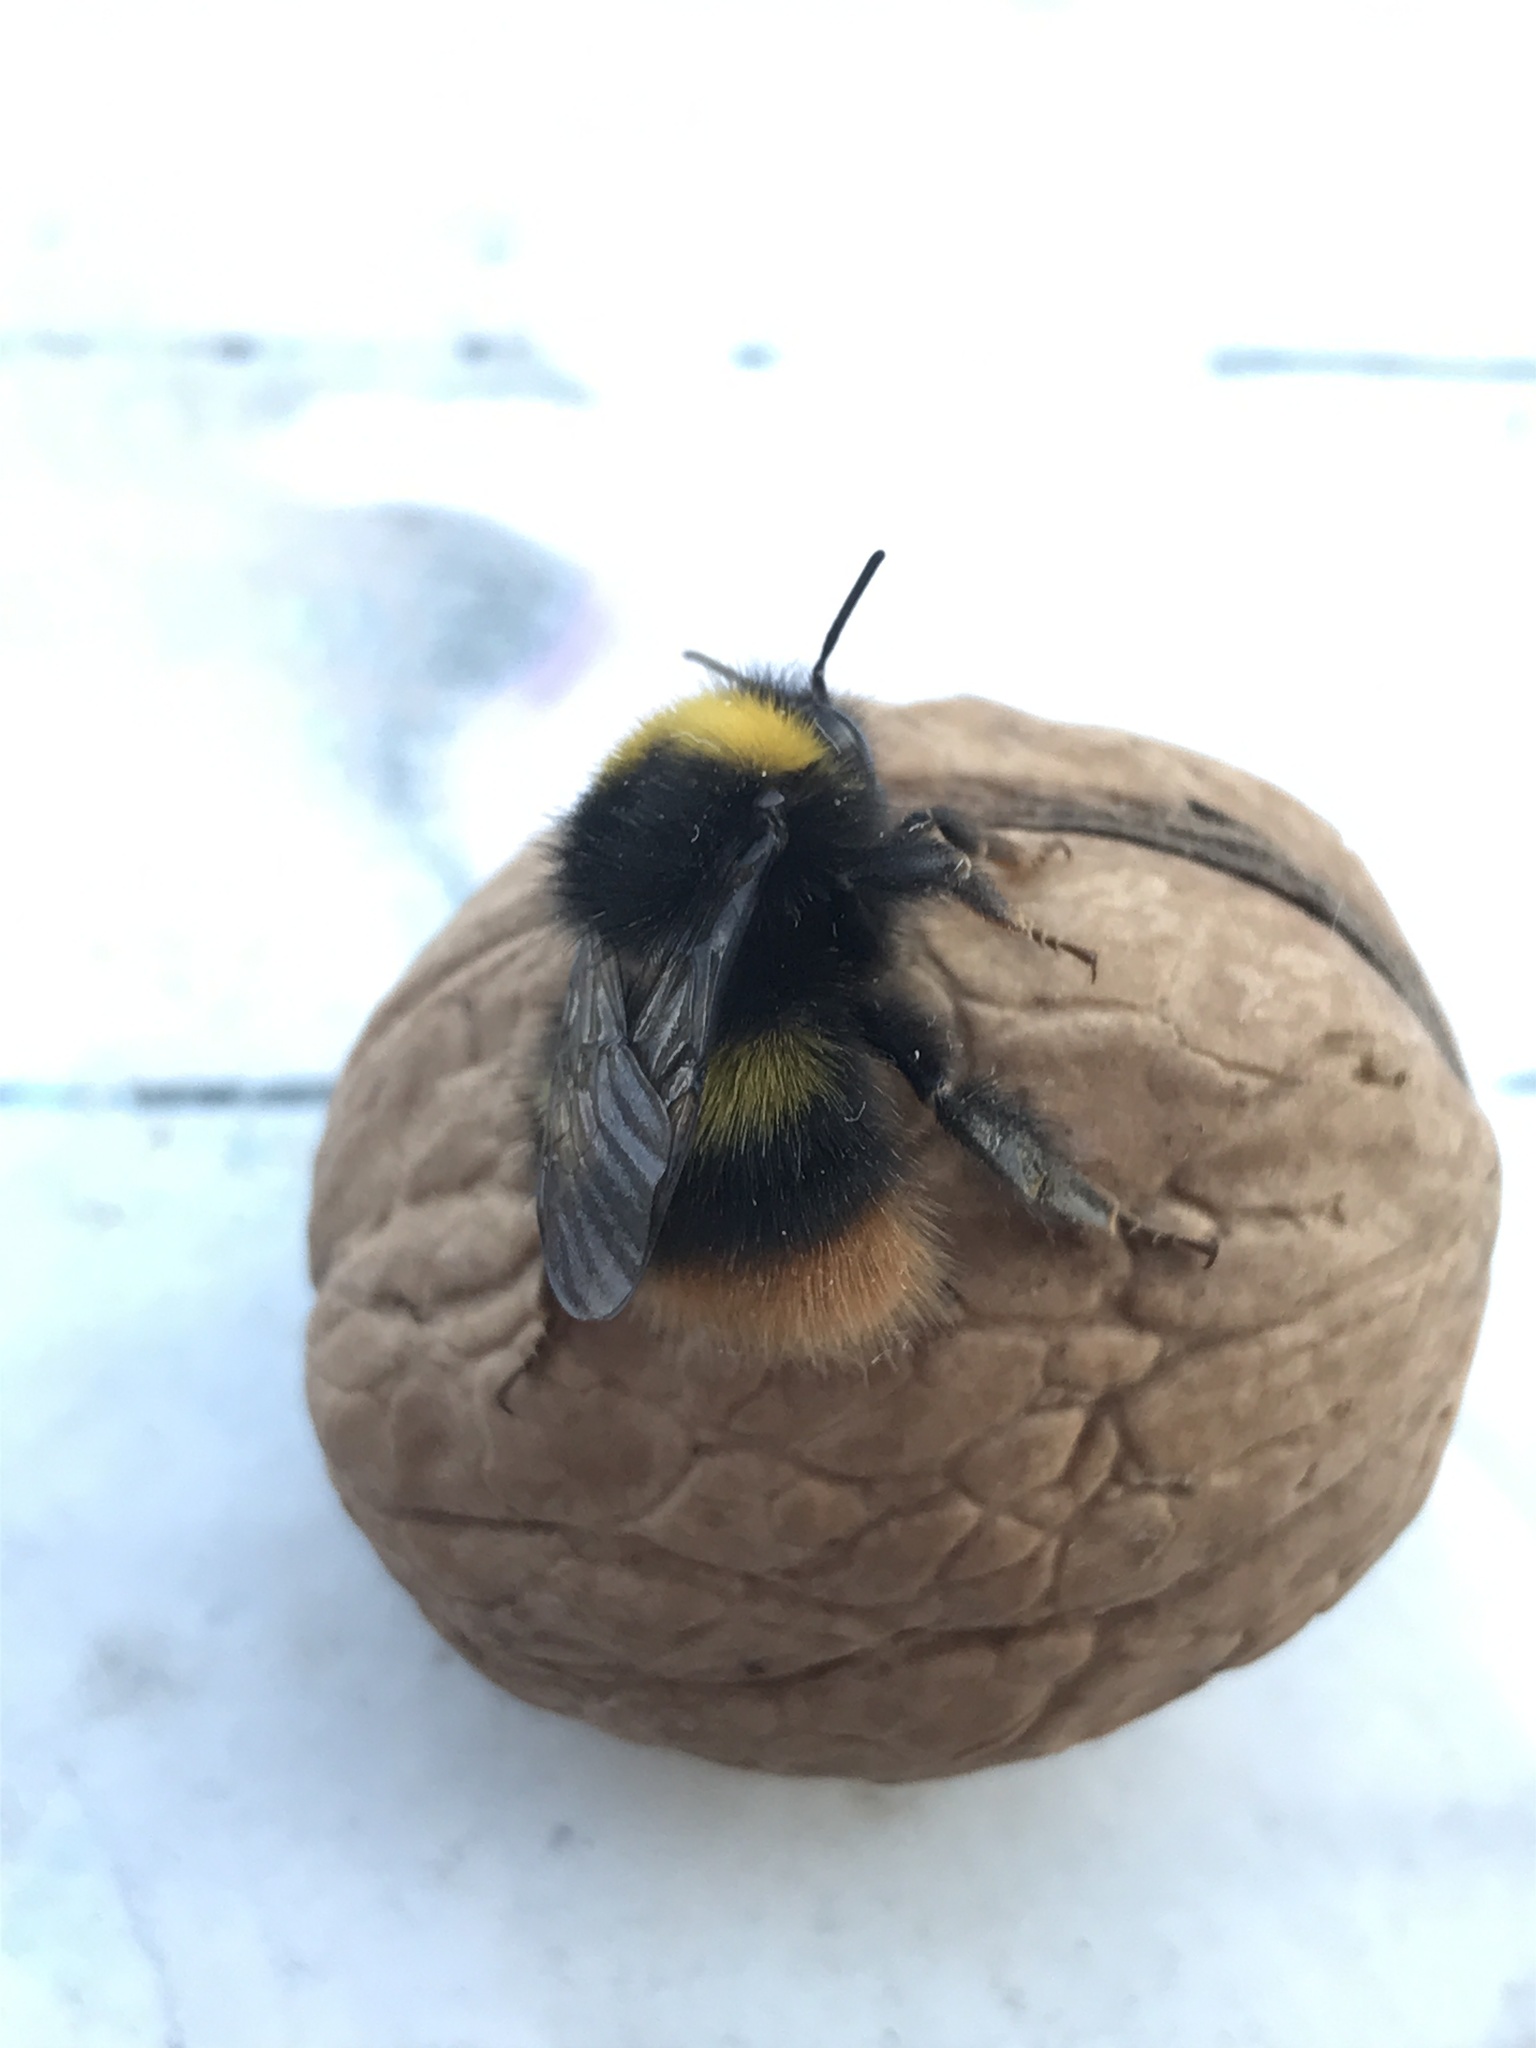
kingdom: Animalia
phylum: Arthropoda
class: Insecta
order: Hymenoptera
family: Apidae
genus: Bombus
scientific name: Bombus pratorum
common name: Early humble-bee
